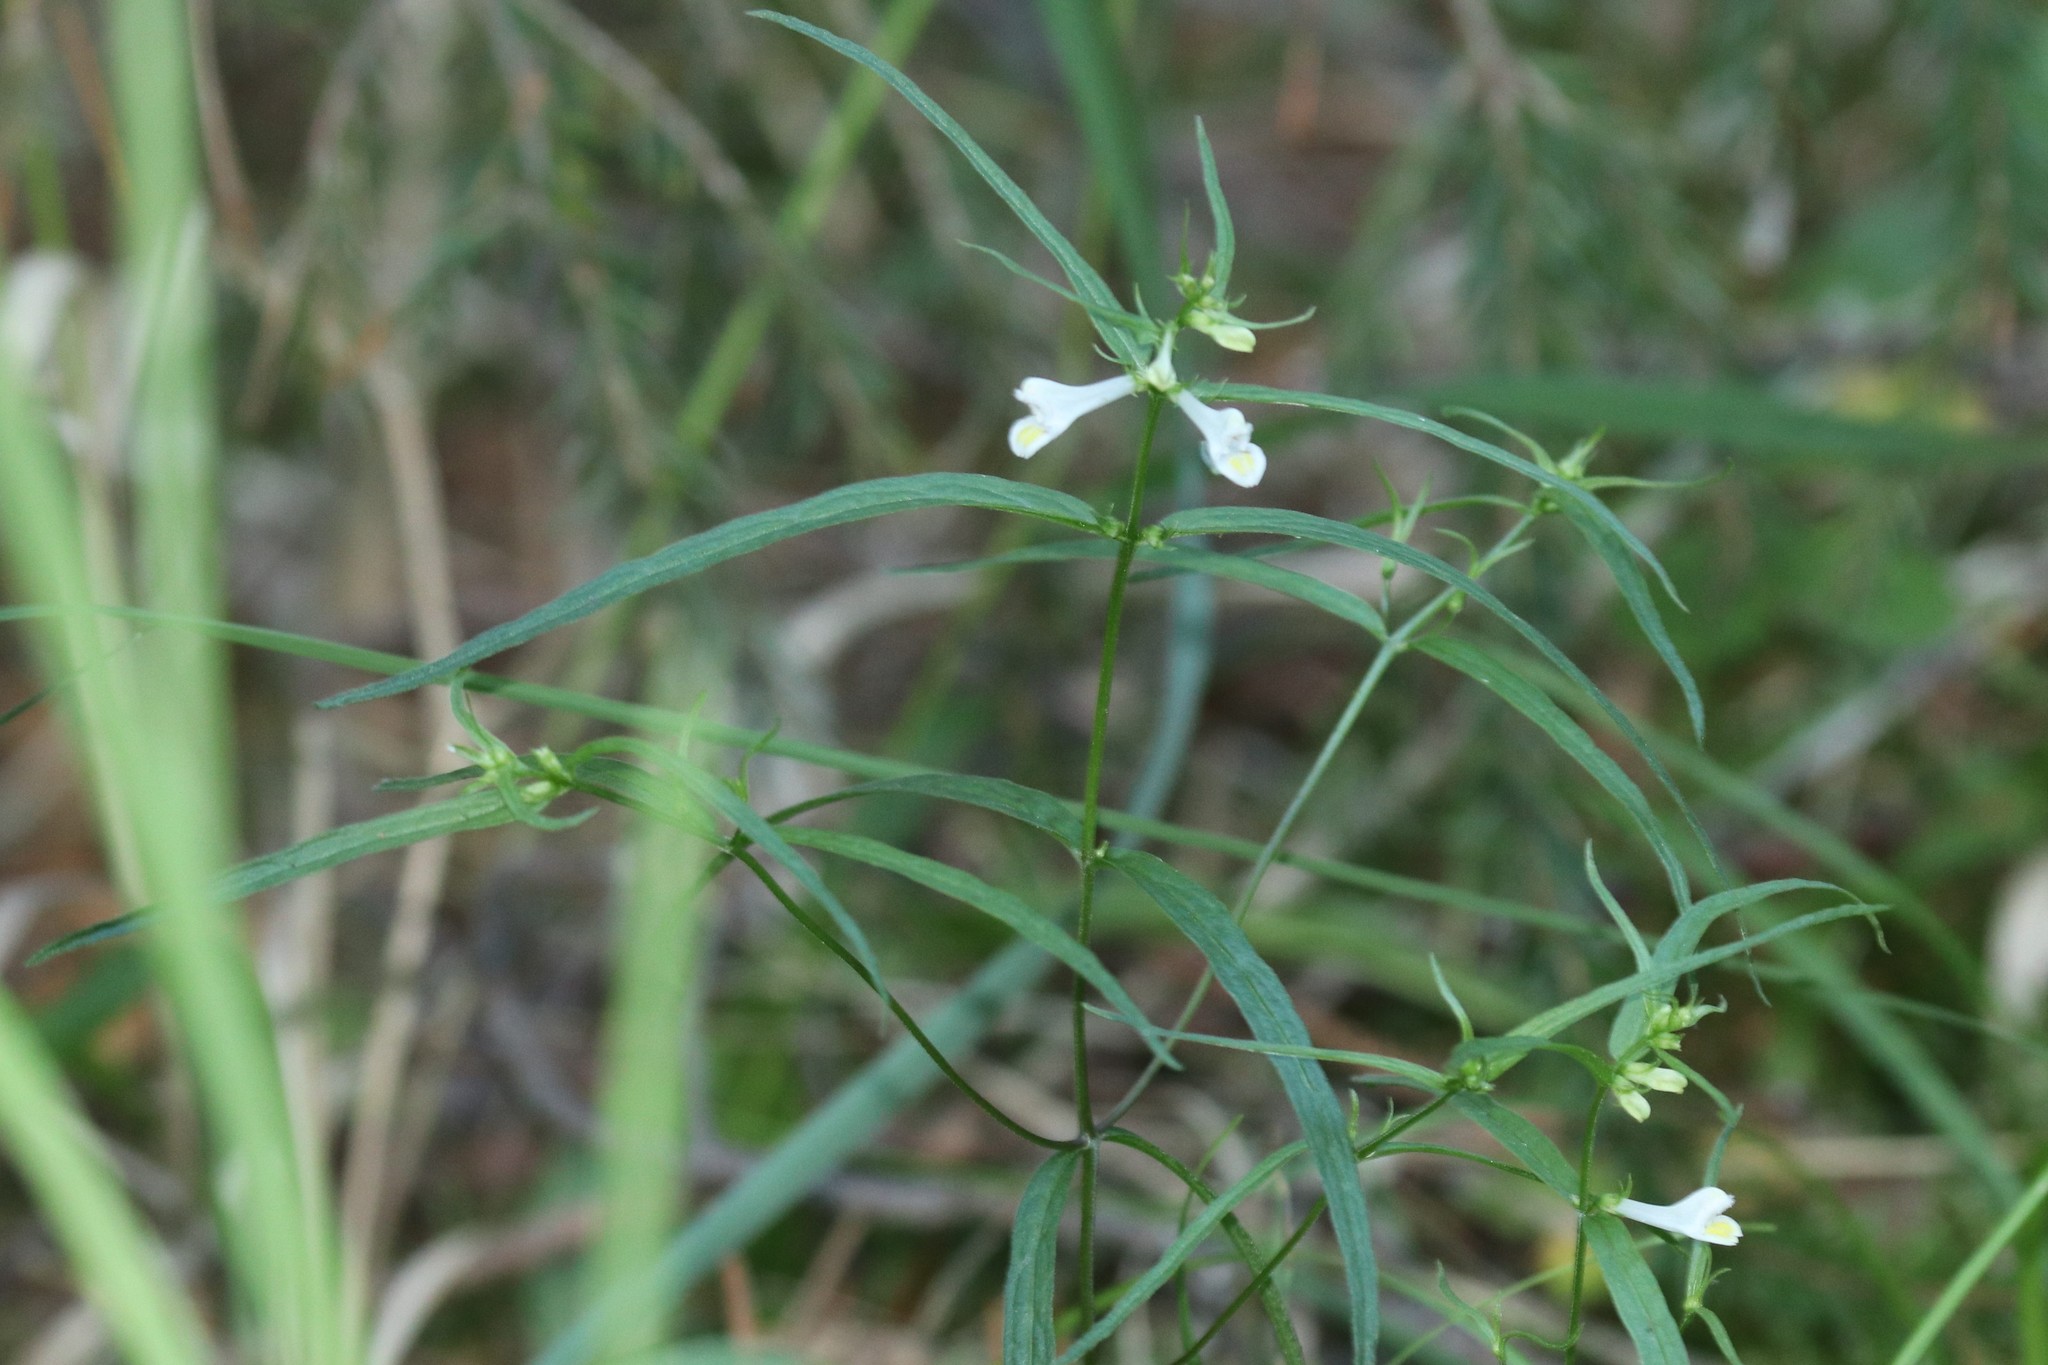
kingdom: Plantae
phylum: Tracheophyta
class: Magnoliopsida
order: Lamiales
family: Orobanchaceae
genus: Melampyrum
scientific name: Melampyrum pratense
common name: Common cow-wheat
